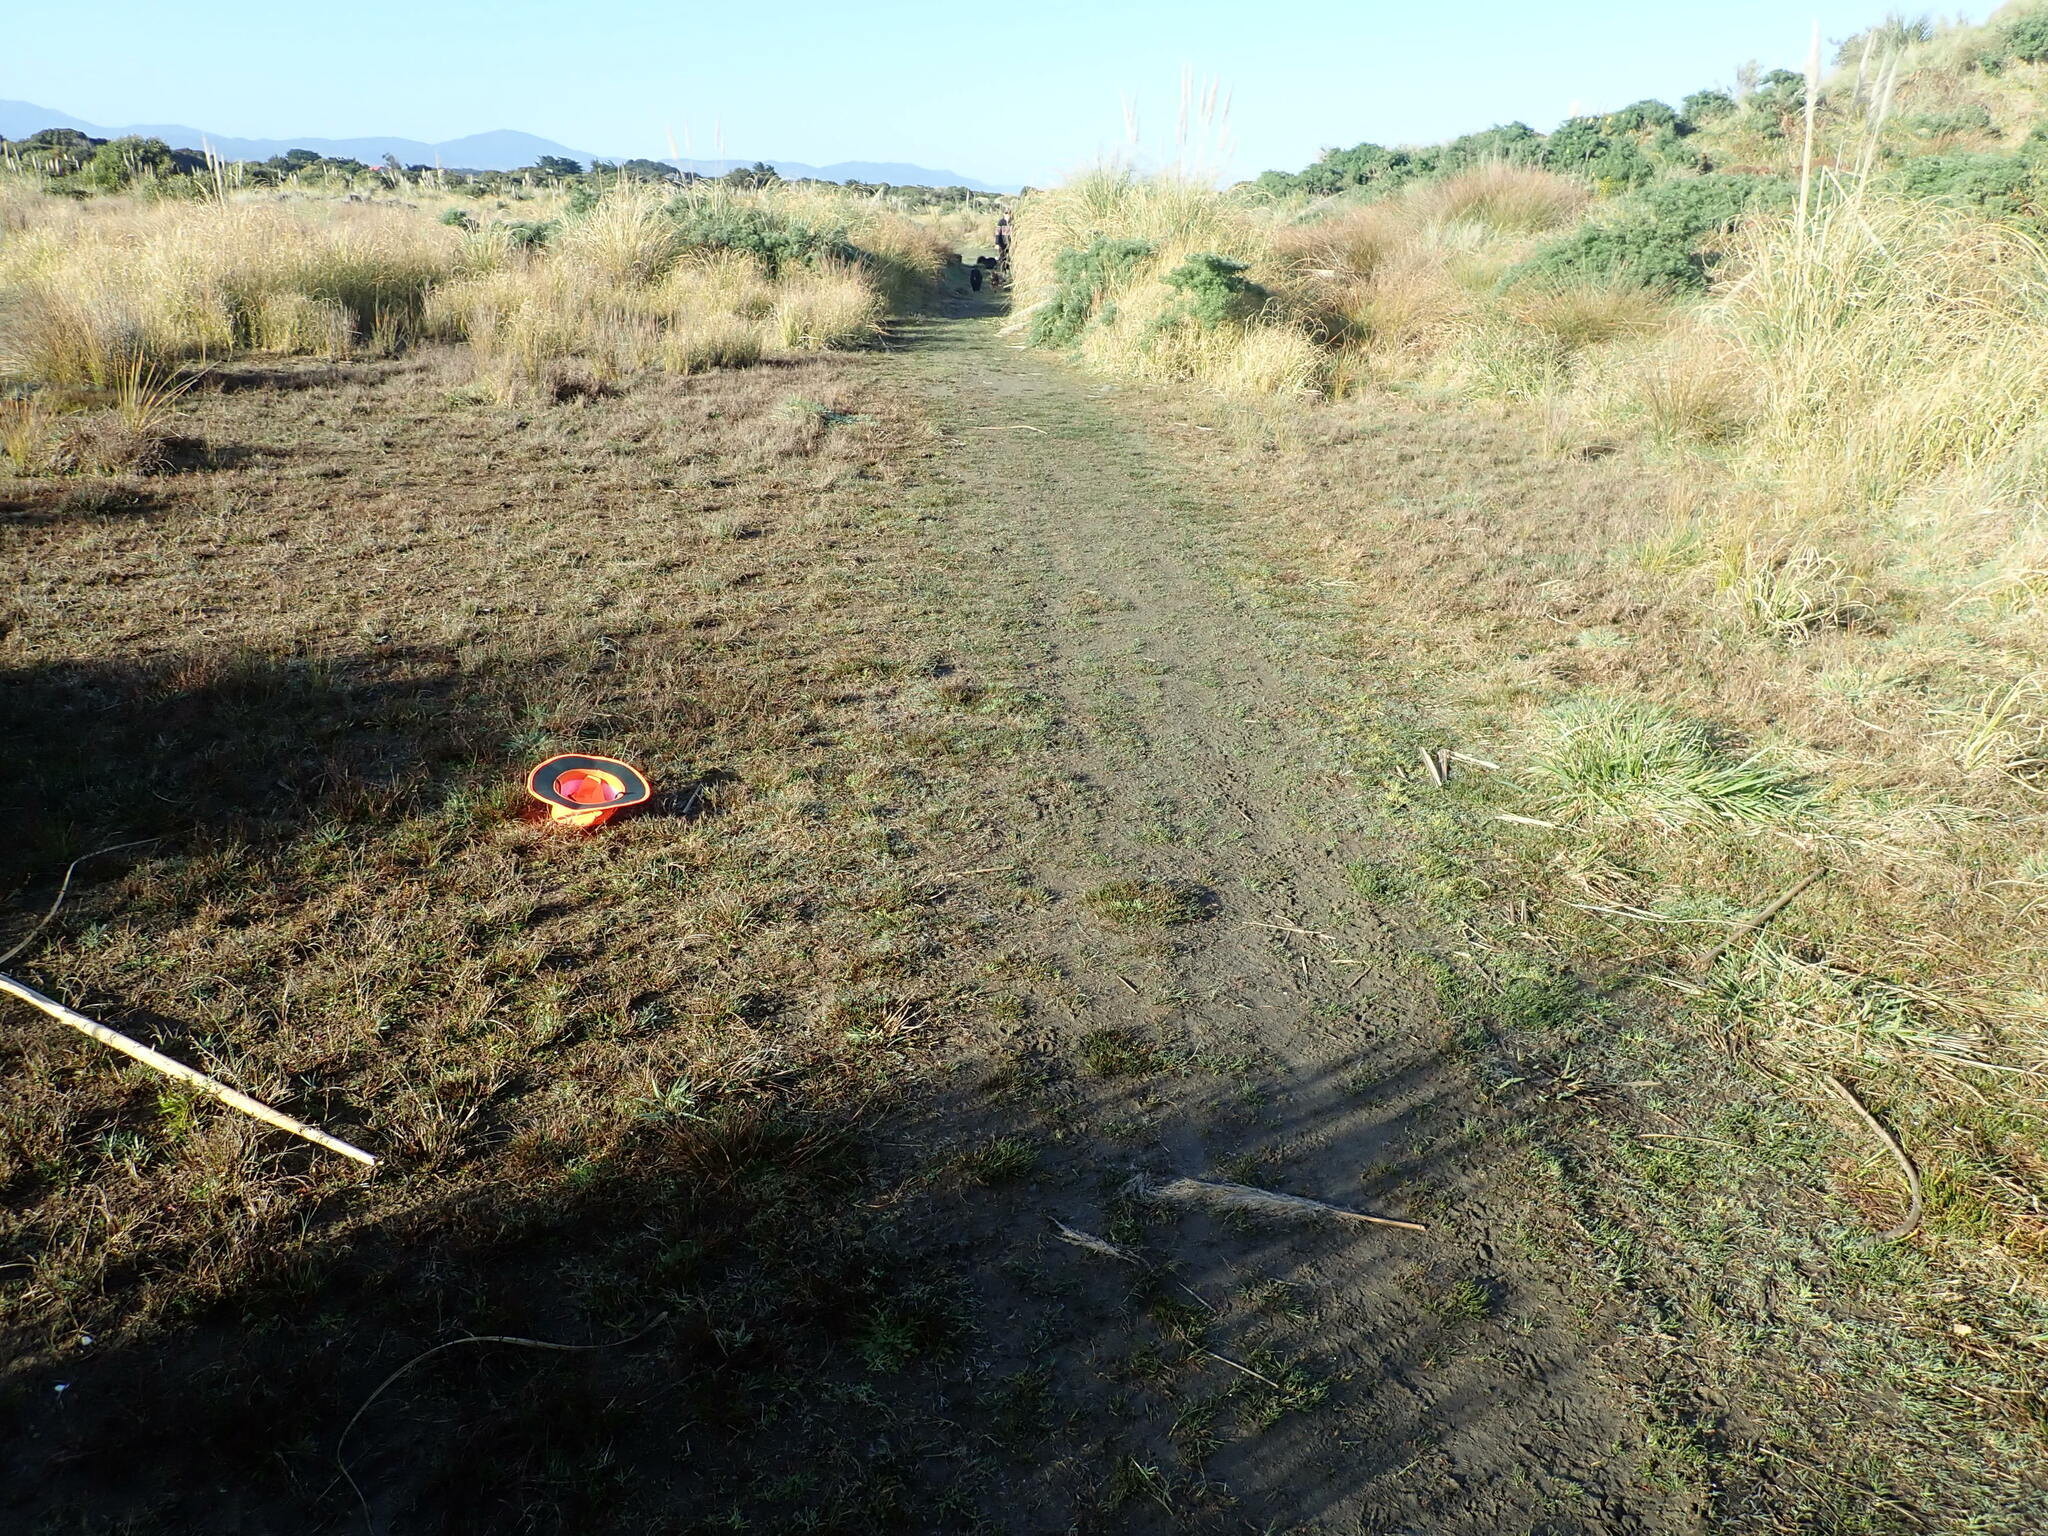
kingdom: Plantae
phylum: Tracheophyta
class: Liliopsida
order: Poales
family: Juncaceae
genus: Juncus
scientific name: Juncus articulatus
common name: Jointed rush
